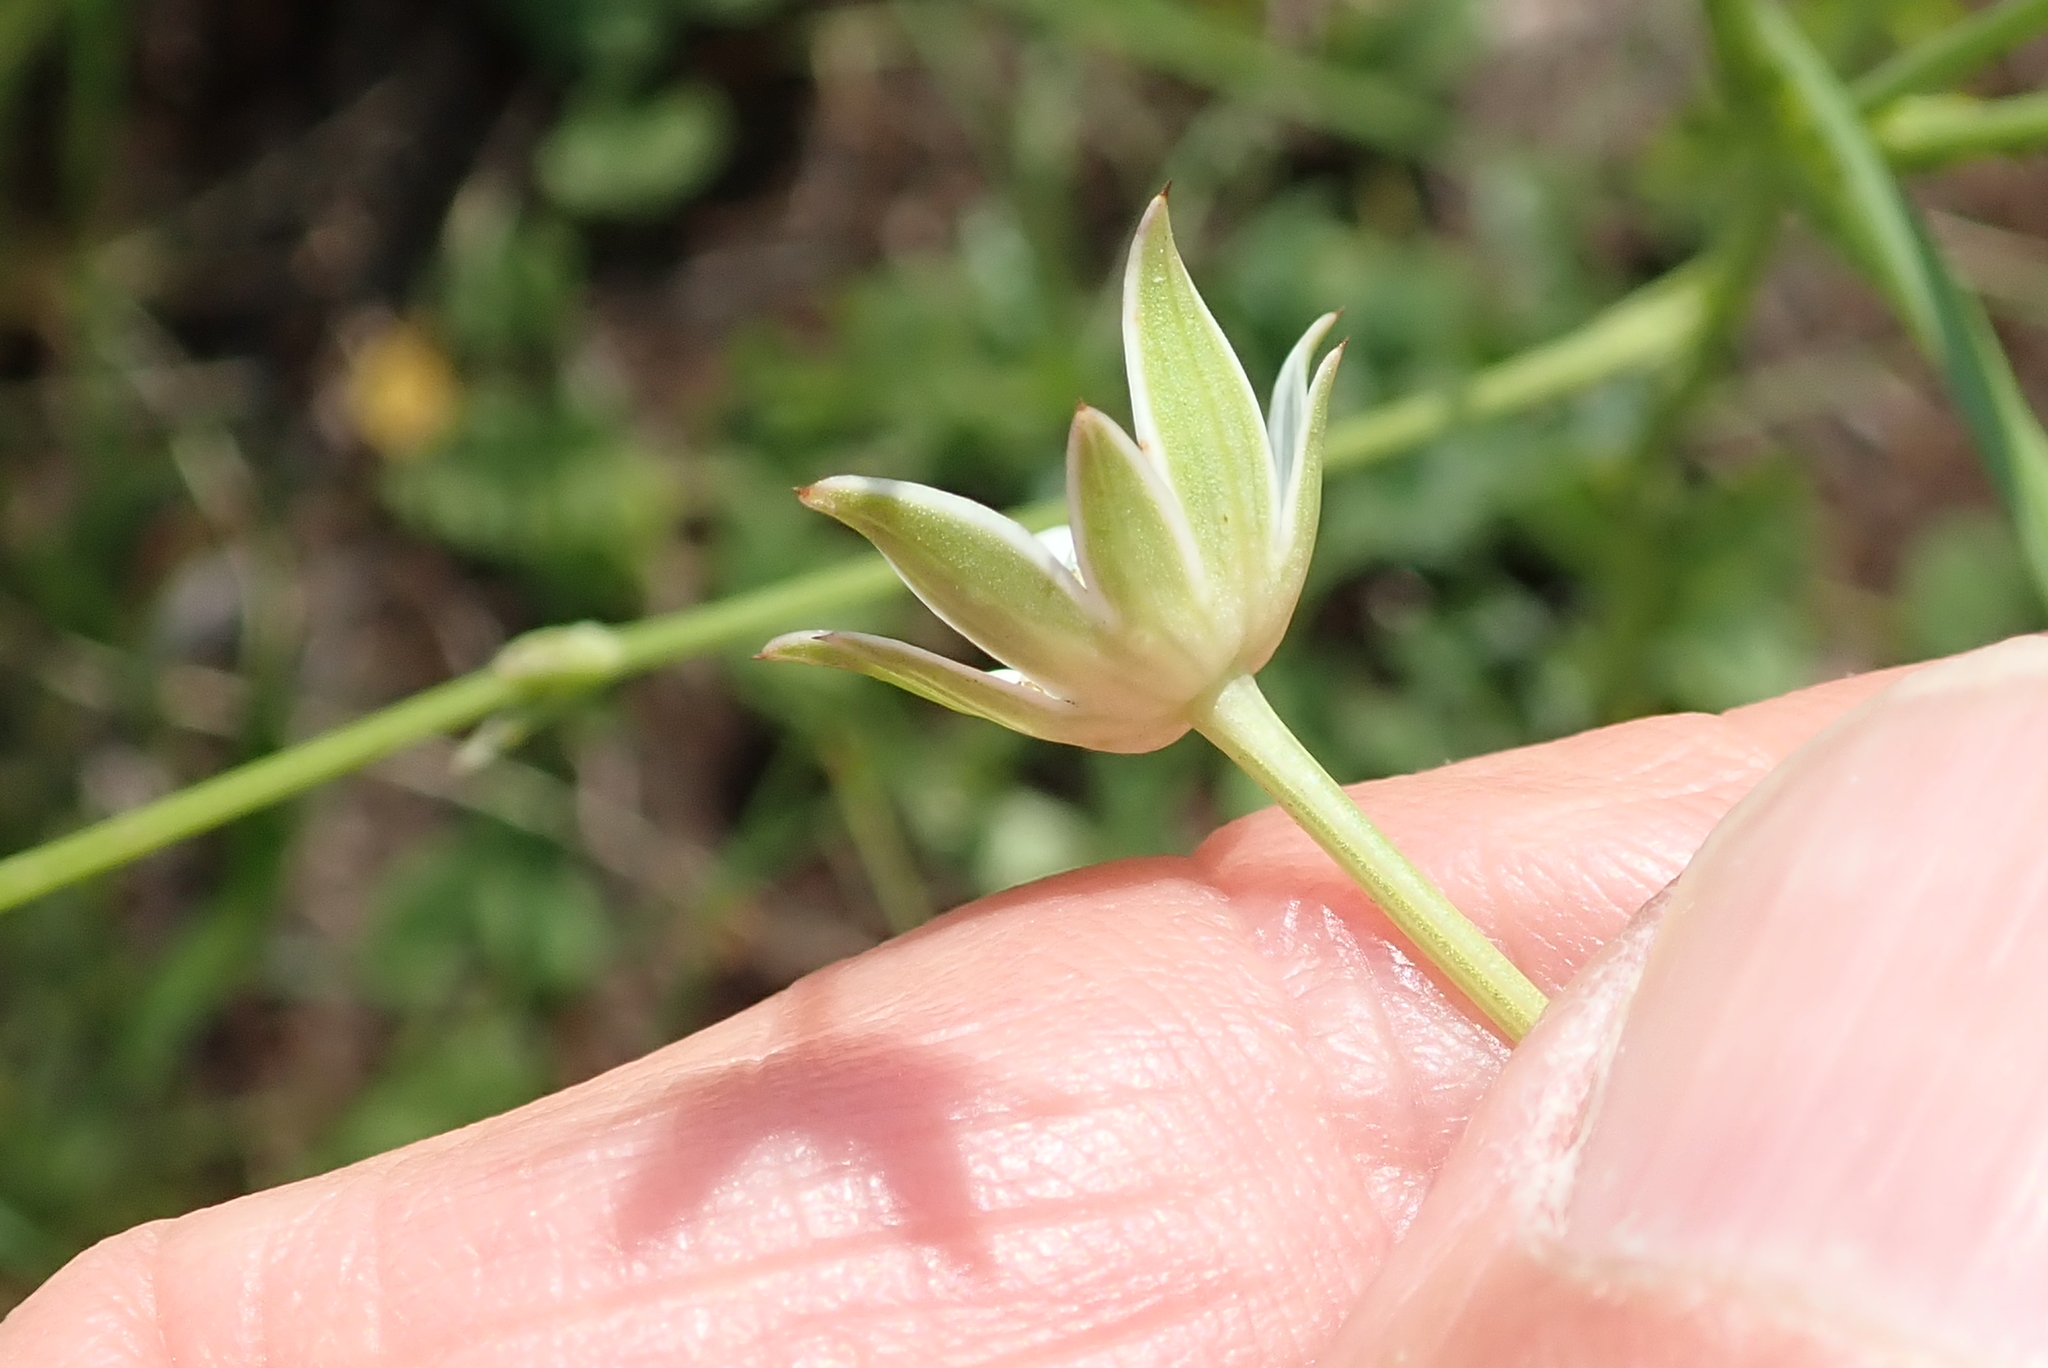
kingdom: Plantae
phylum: Tracheophyta
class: Magnoliopsida
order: Apiales
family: Apiaceae
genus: Alepidea
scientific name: Alepidea peduncularis
